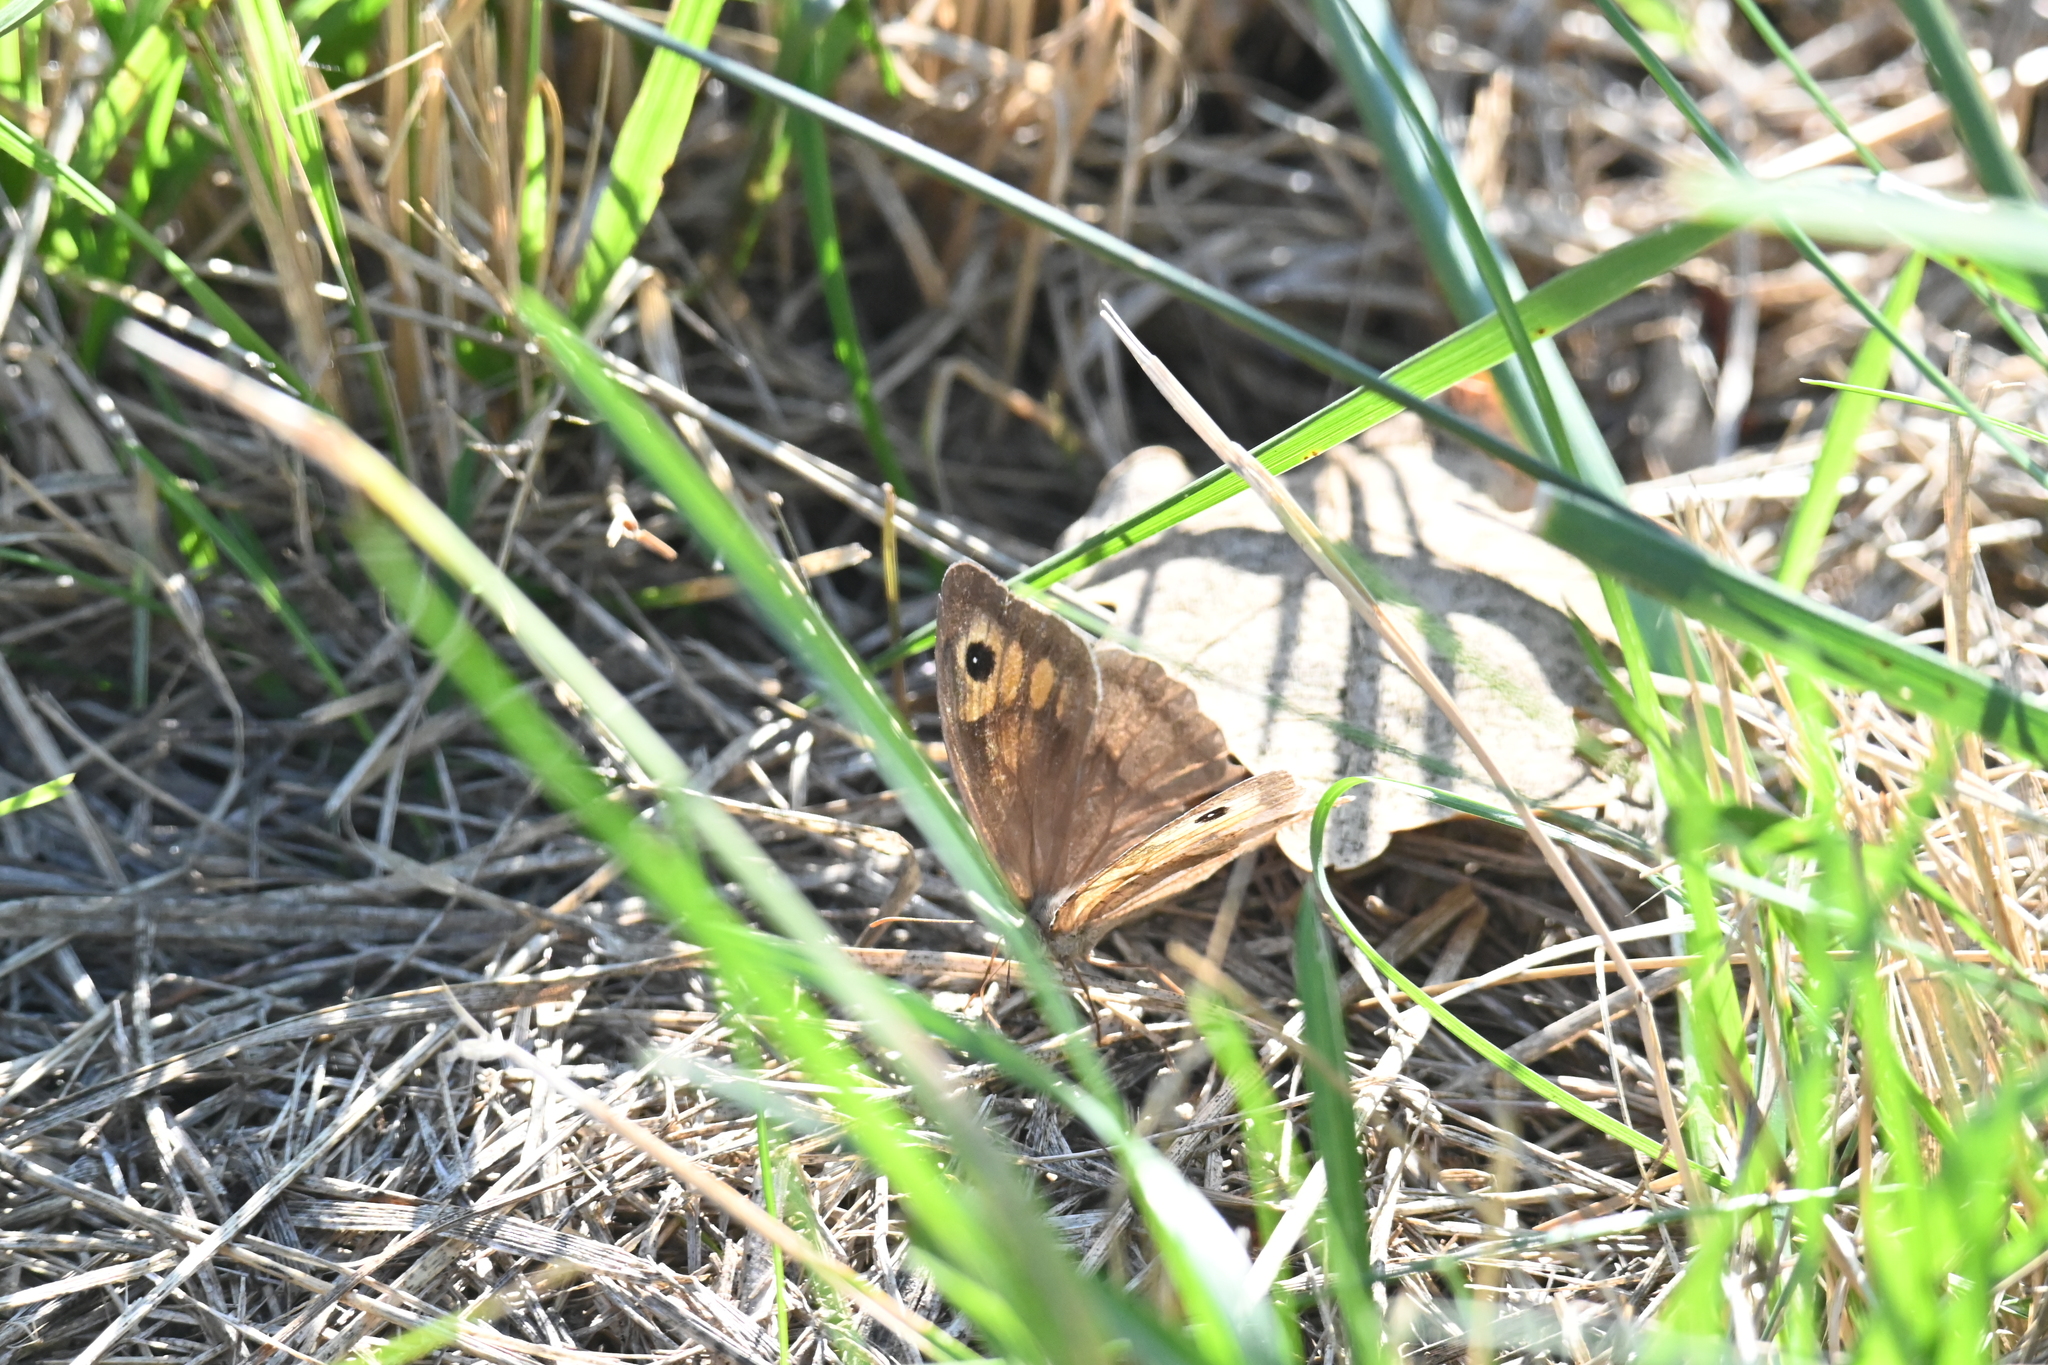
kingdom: Animalia
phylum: Arthropoda
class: Insecta
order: Lepidoptera
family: Nymphalidae
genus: Maniola
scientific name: Maniola jurtina
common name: Meadow brown
